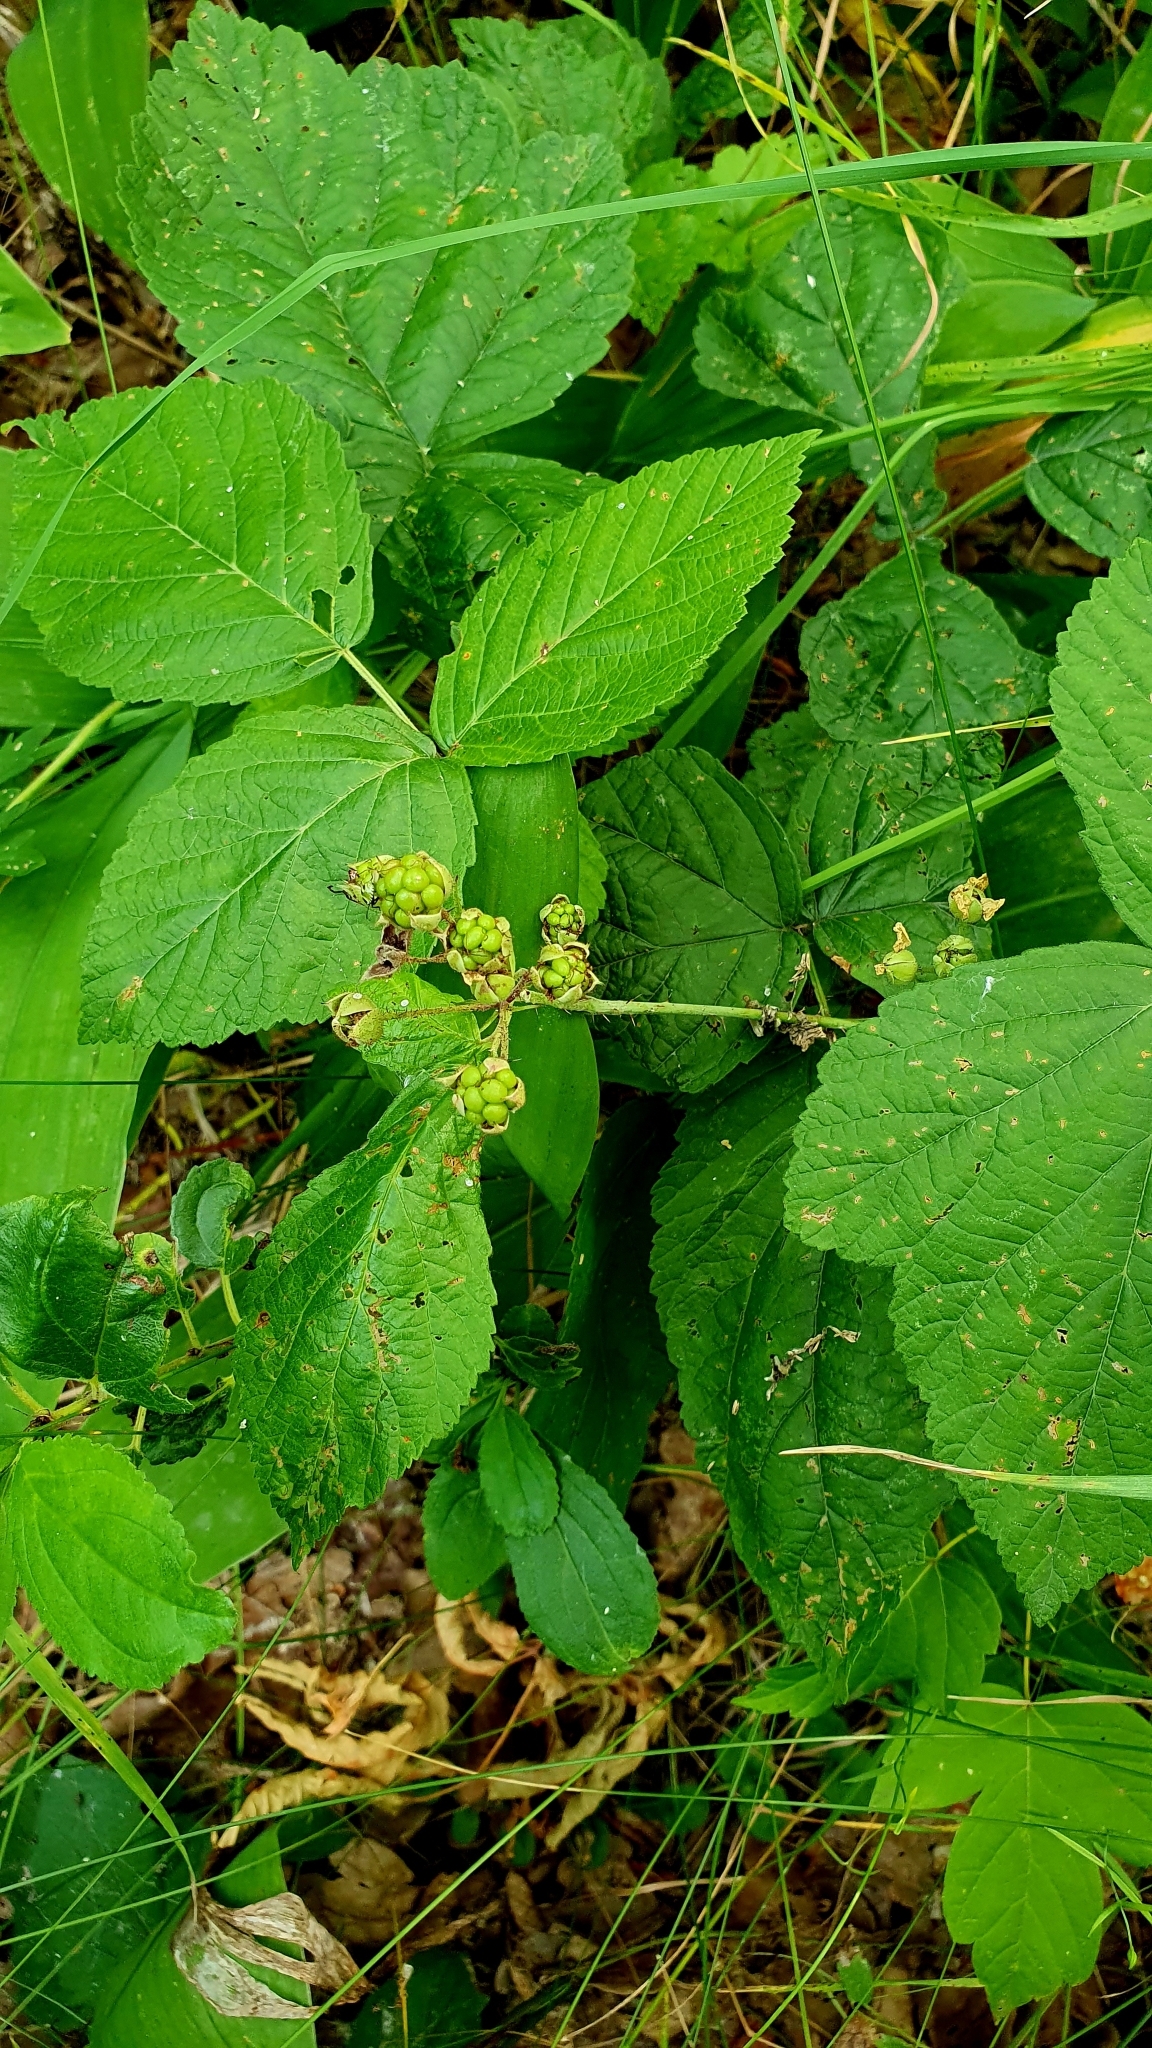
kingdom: Plantae
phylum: Tracheophyta
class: Magnoliopsida
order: Rosales
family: Rosaceae
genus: Rubus
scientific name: Rubus caesius
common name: Dewberry
